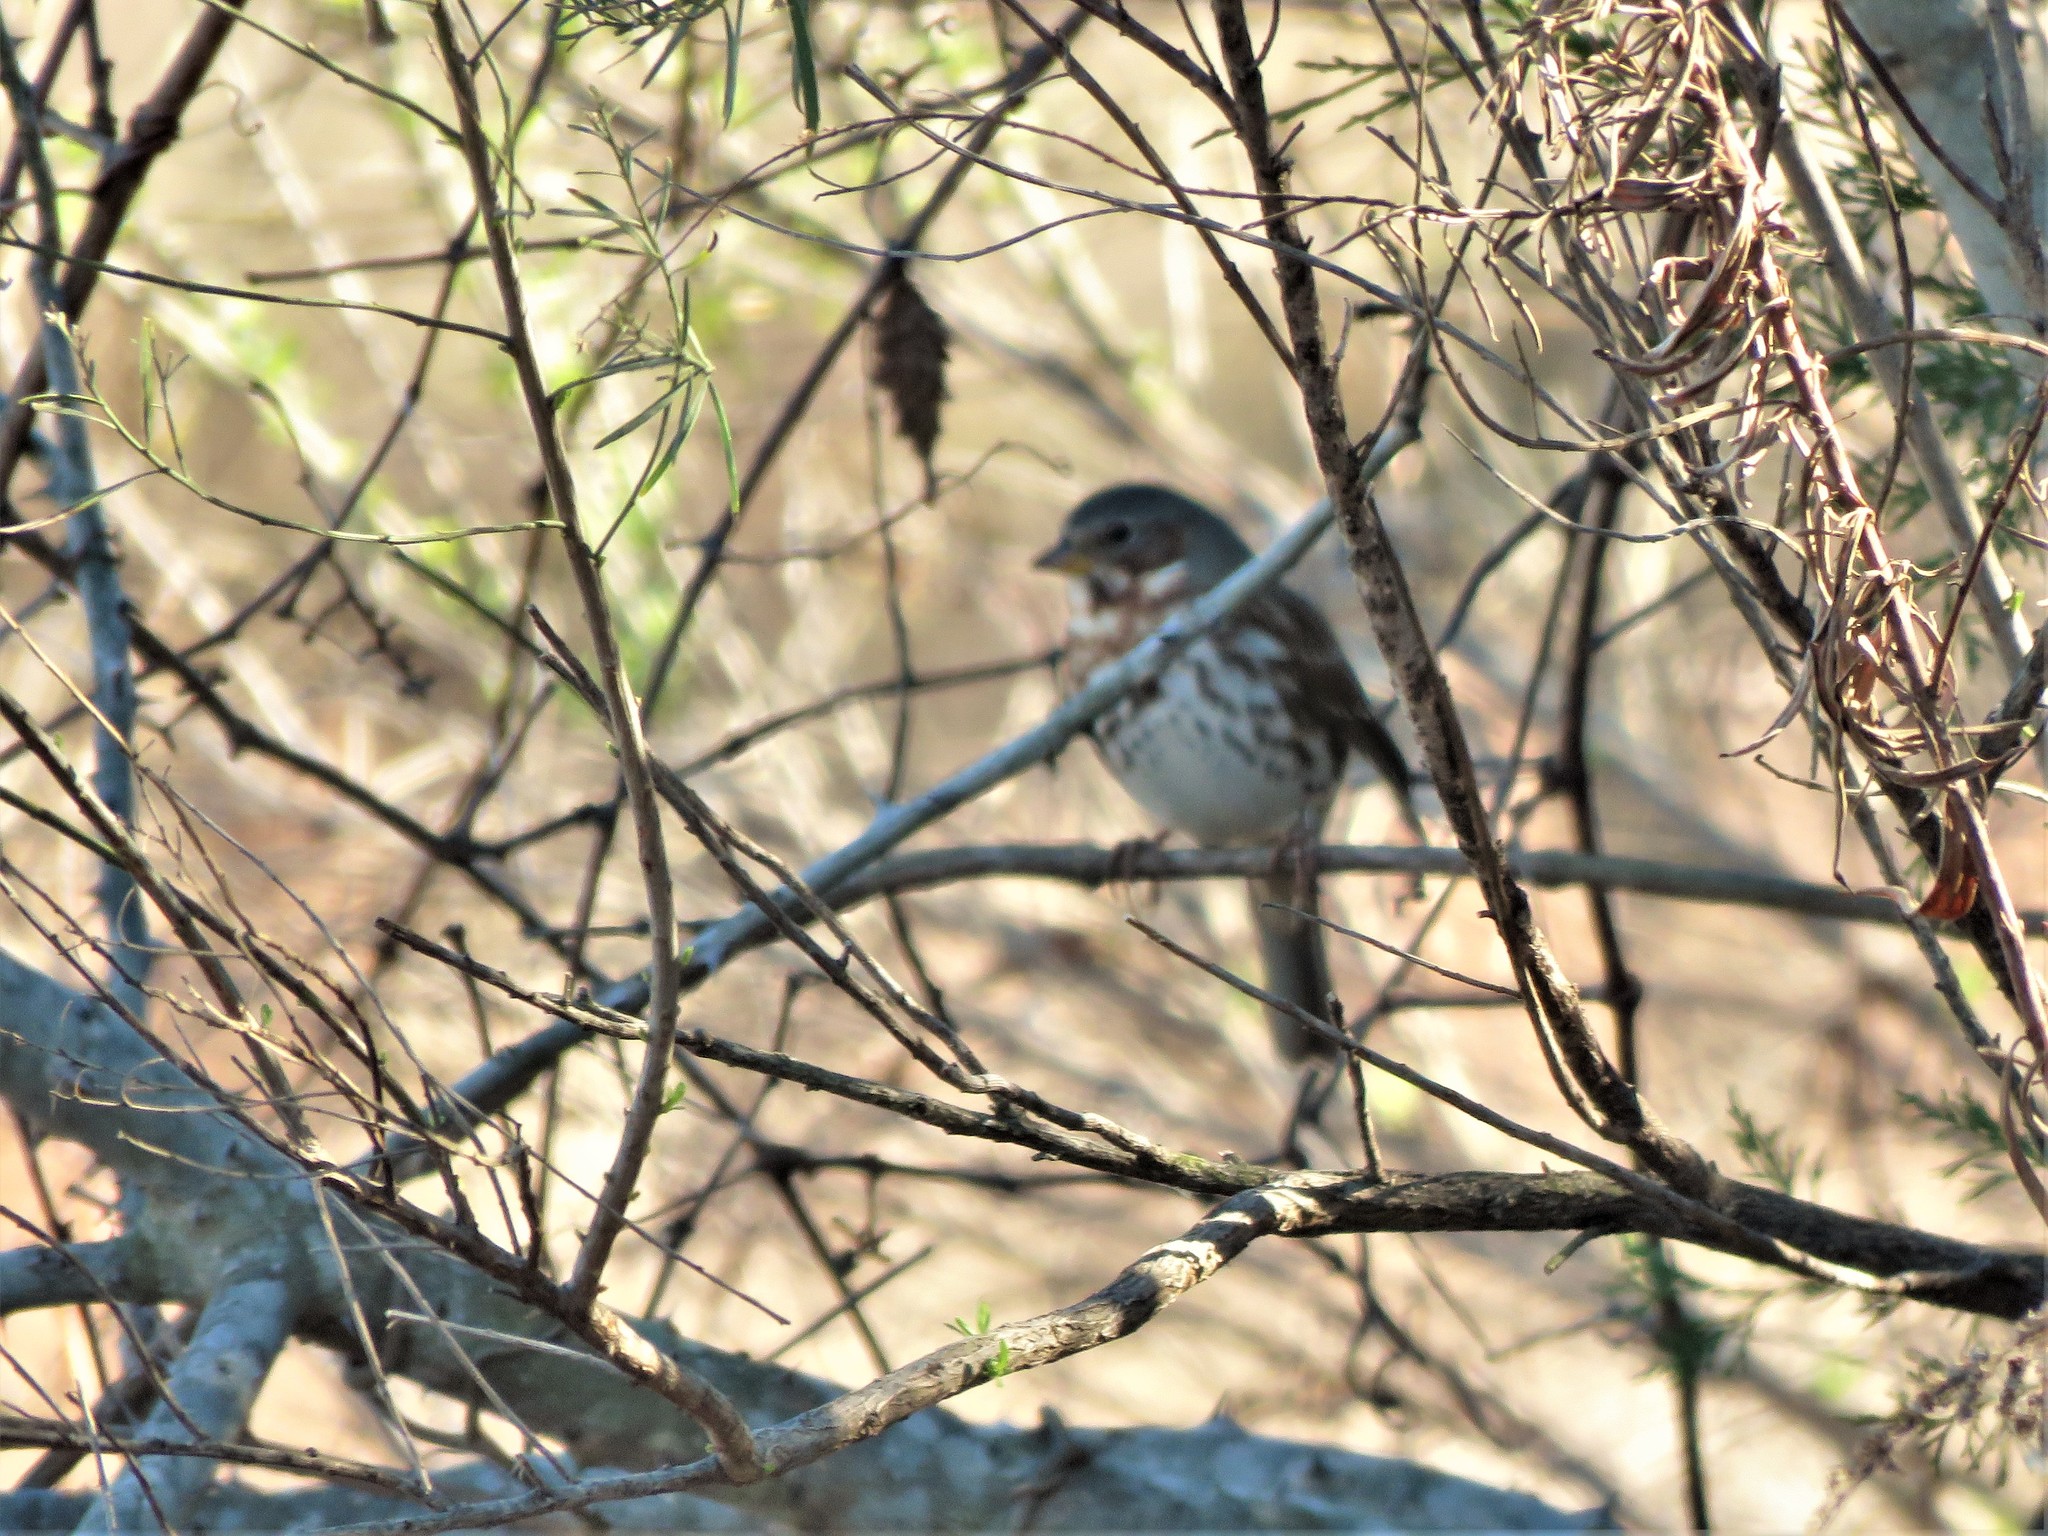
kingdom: Animalia
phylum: Chordata
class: Aves
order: Passeriformes
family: Passerellidae
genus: Passerella
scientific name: Passerella iliaca
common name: Fox sparrow
